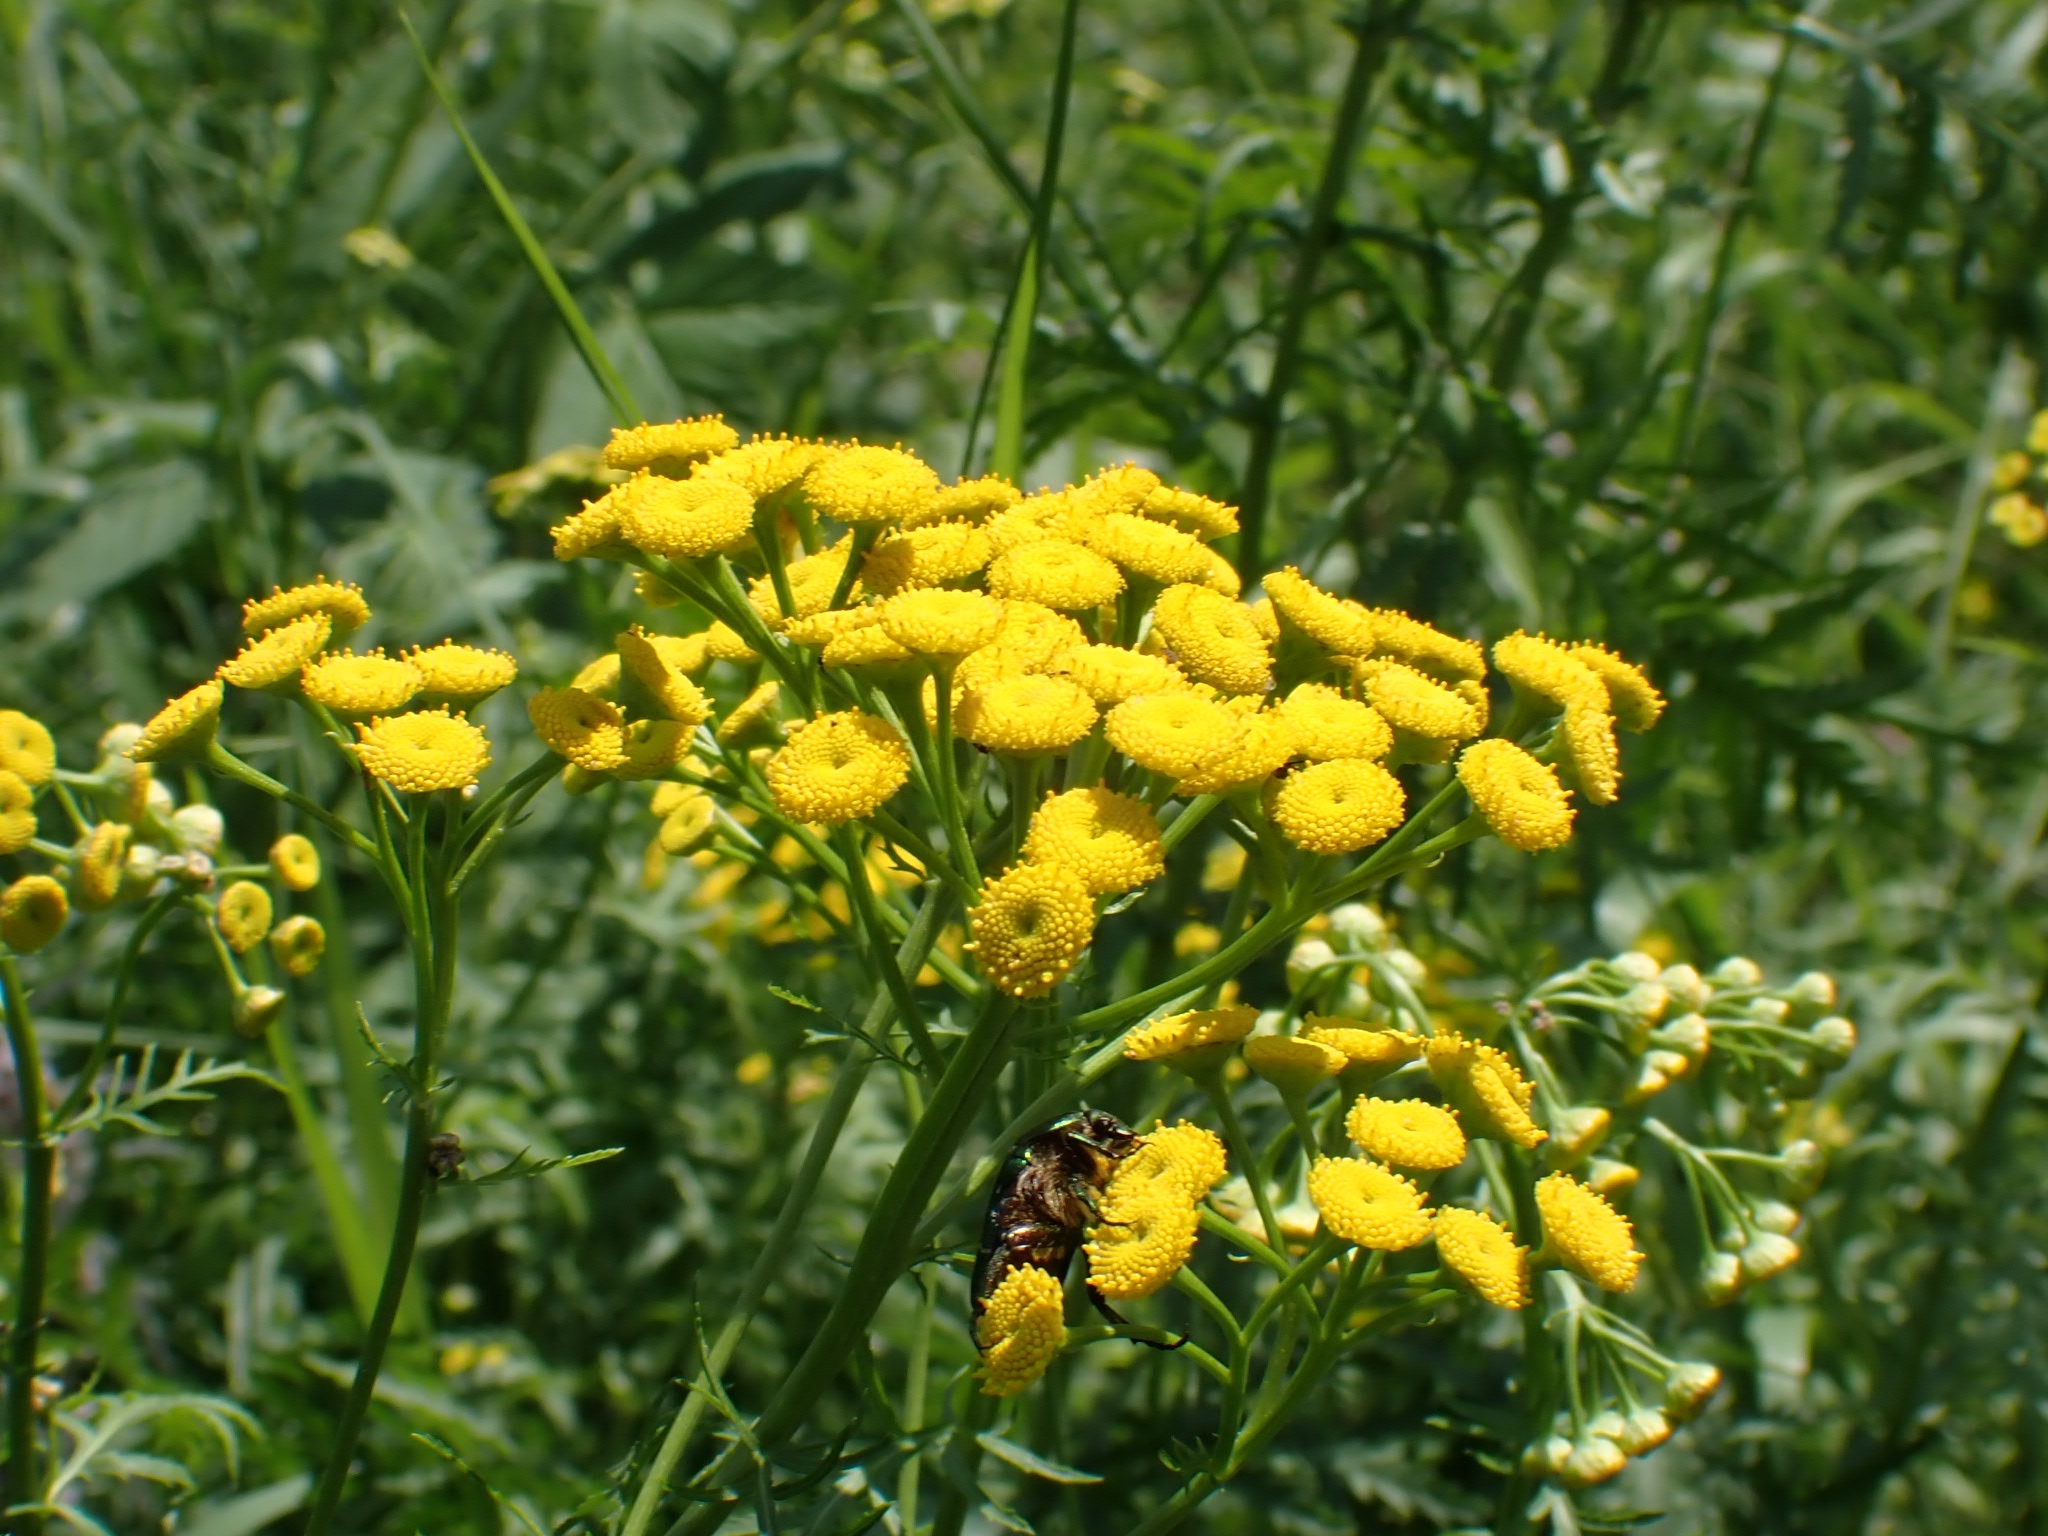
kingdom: Plantae
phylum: Tracheophyta
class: Magnoliopsida
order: Asterales
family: Asteraceae
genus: Tanacetum
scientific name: Tanacetum vulgare
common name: Common tansy
